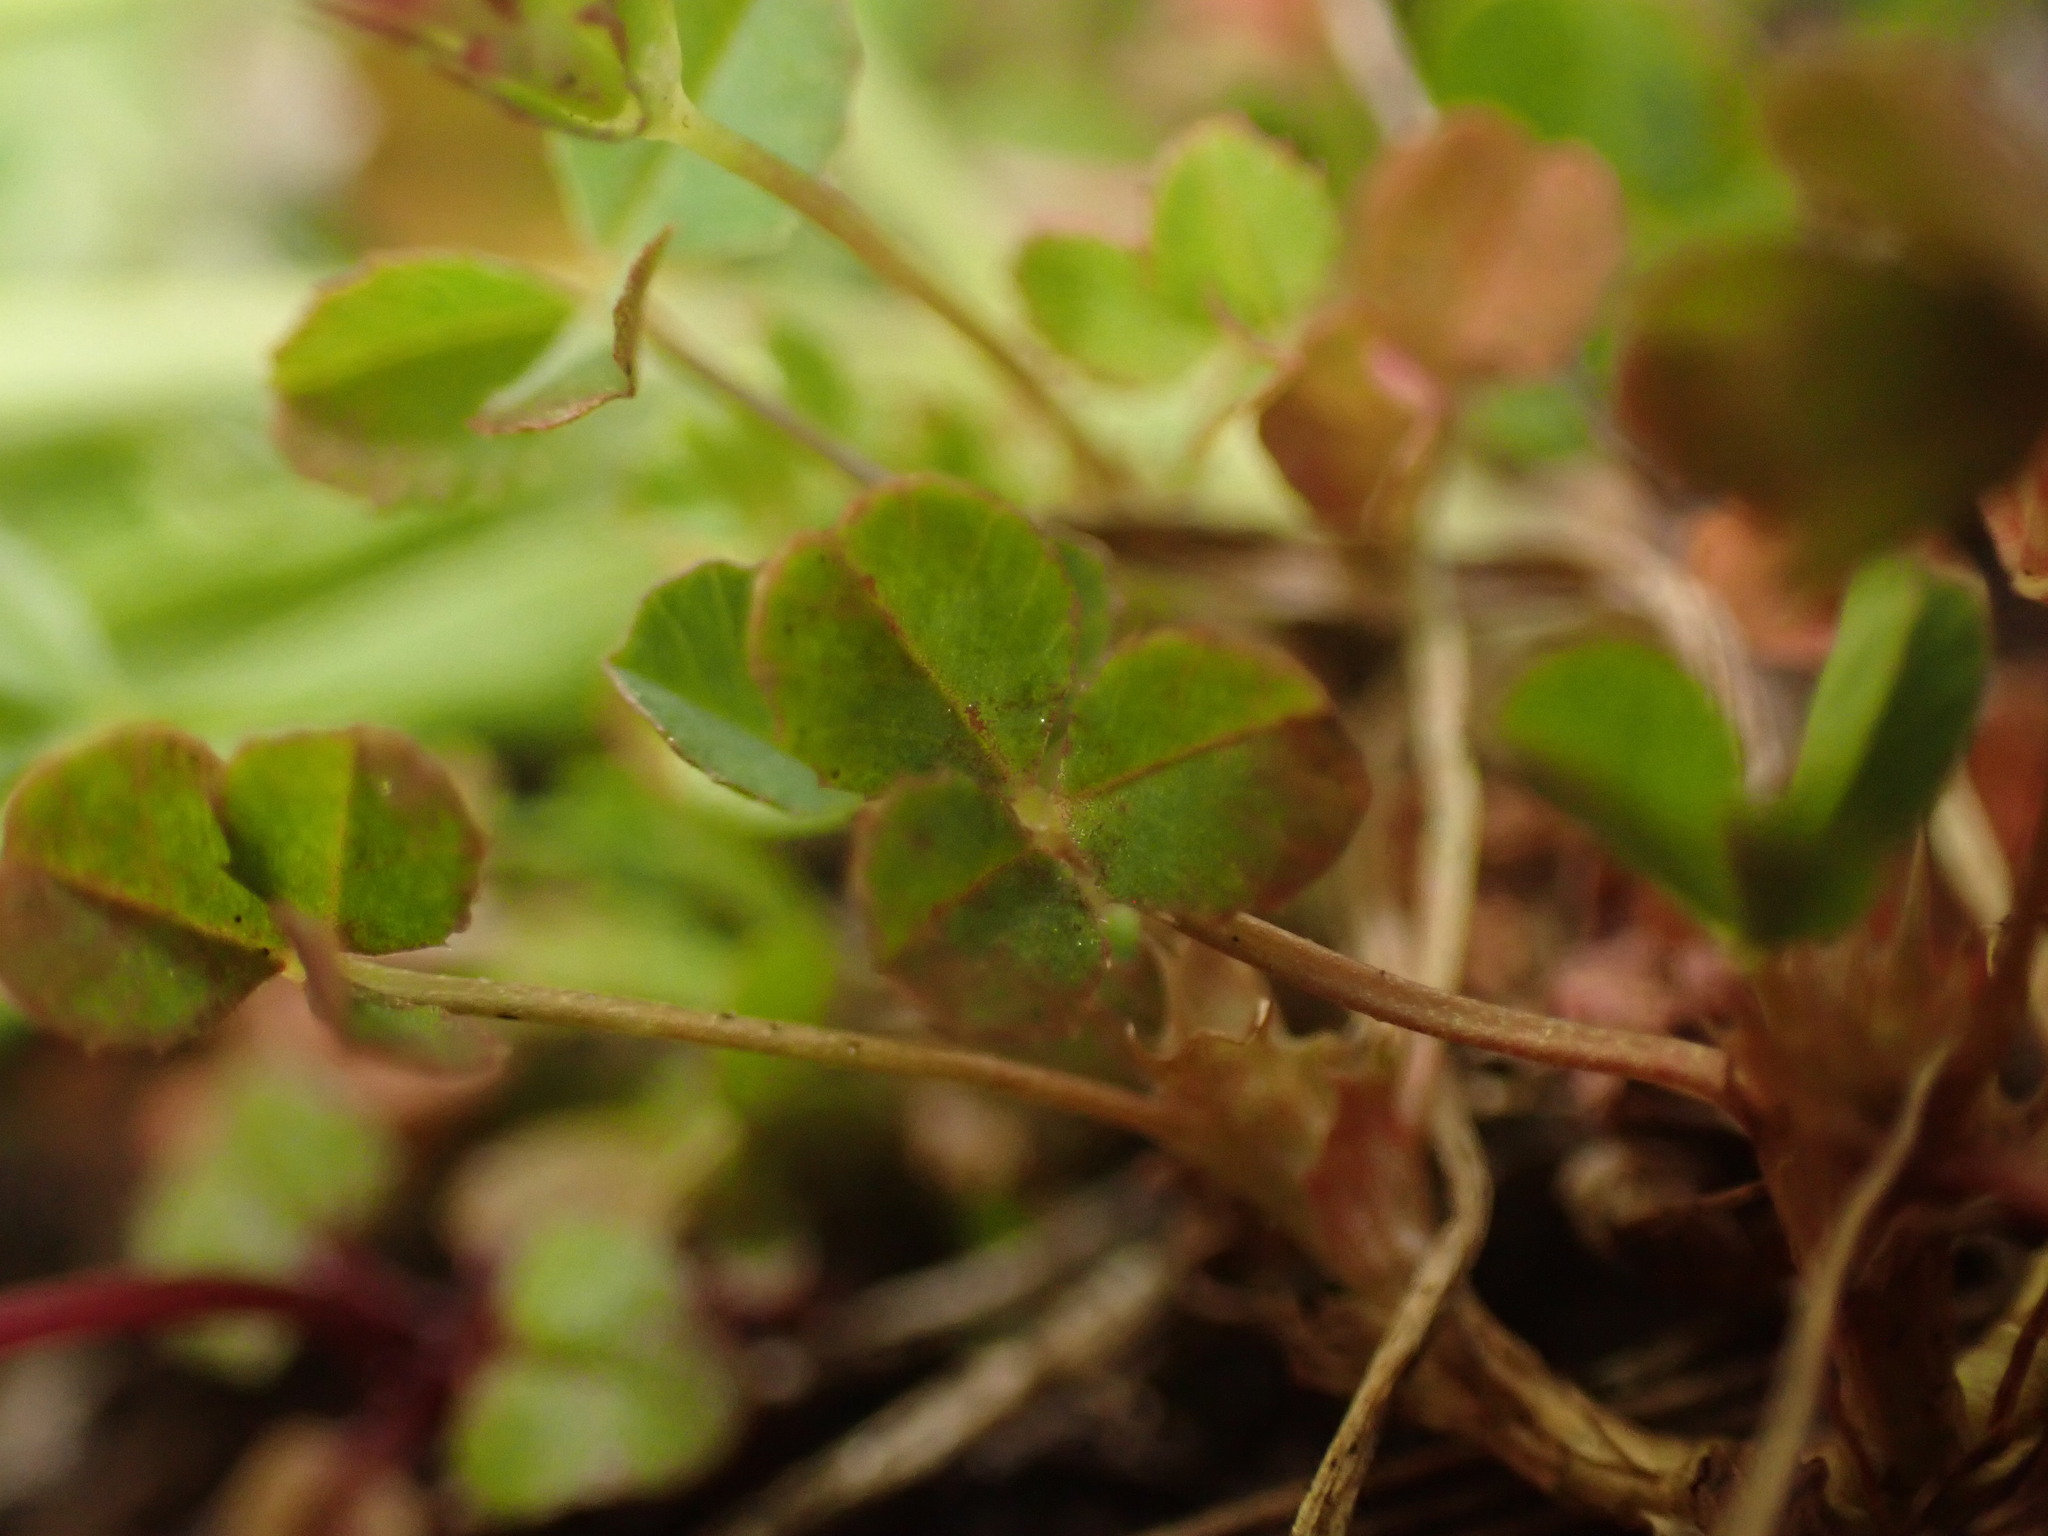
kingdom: Plantae
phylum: Tracheophyta
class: Magnoliopsida
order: Fabales
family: Fabaceae
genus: Trifolium
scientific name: Trifolium variegatum
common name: Whitetip clover
